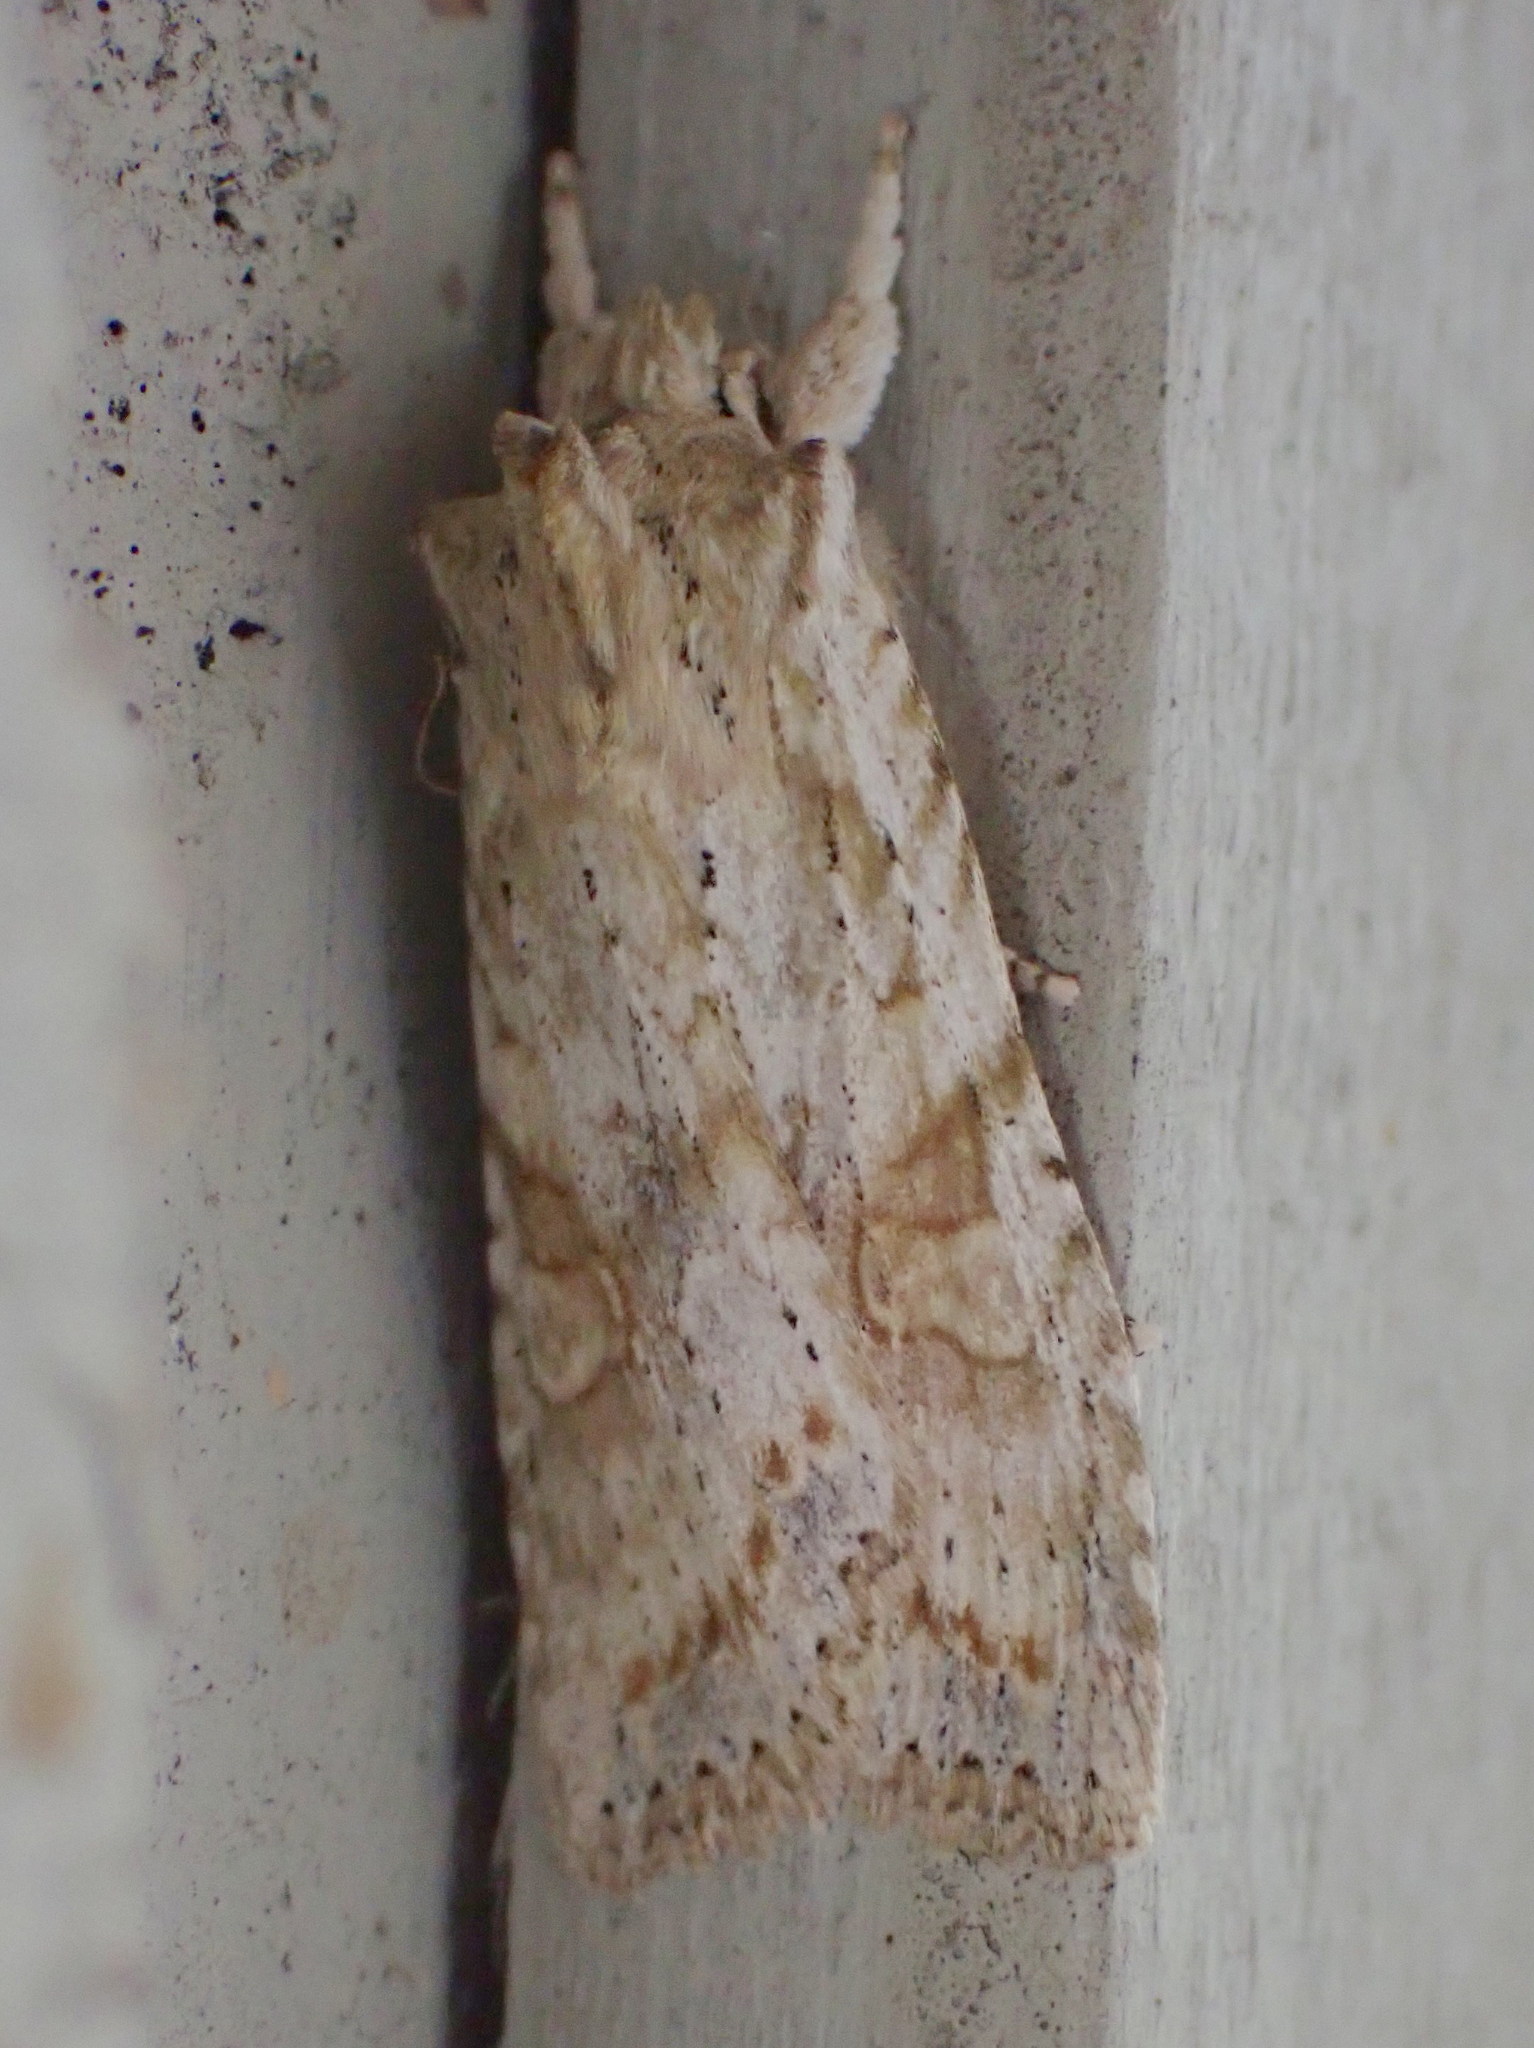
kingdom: Animalia
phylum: Arthropoda
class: Insecta
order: Lepidoptera
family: Noctuidae
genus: Lithophane
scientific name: Lithophane bethunei
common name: Bethune's pinion moth
